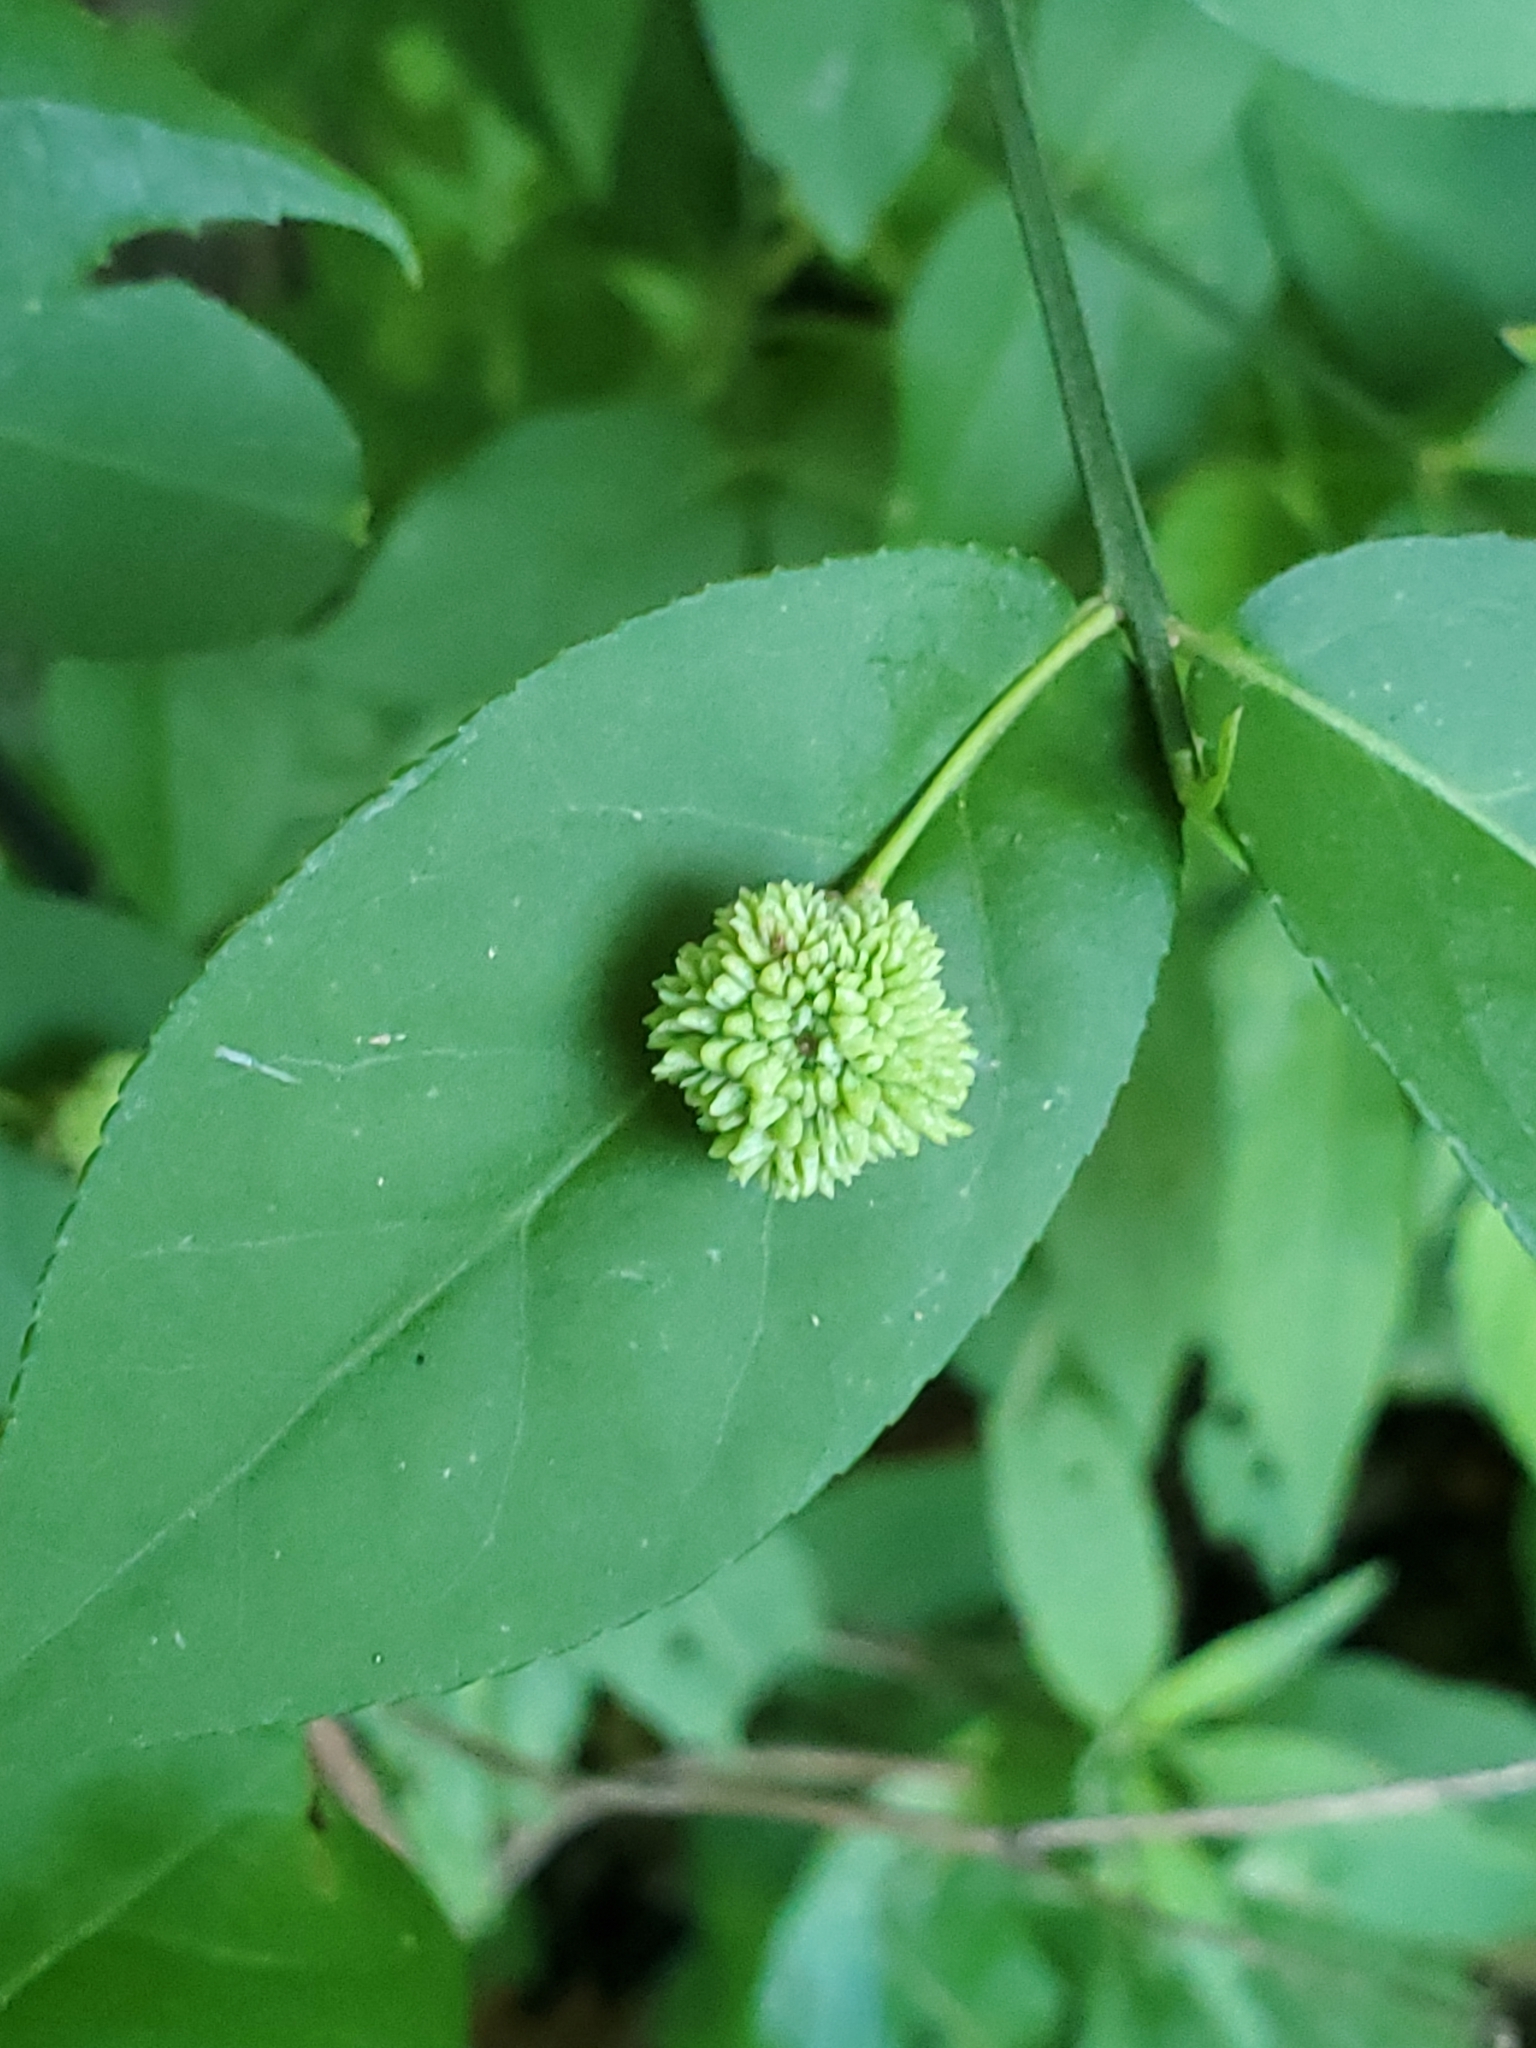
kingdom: Plantae
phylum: Tracheophyta
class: Magnoliopsida
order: Celastrales
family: Celastraceae
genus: Euonymus
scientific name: Euonymus americanus
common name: Bursting-heart
